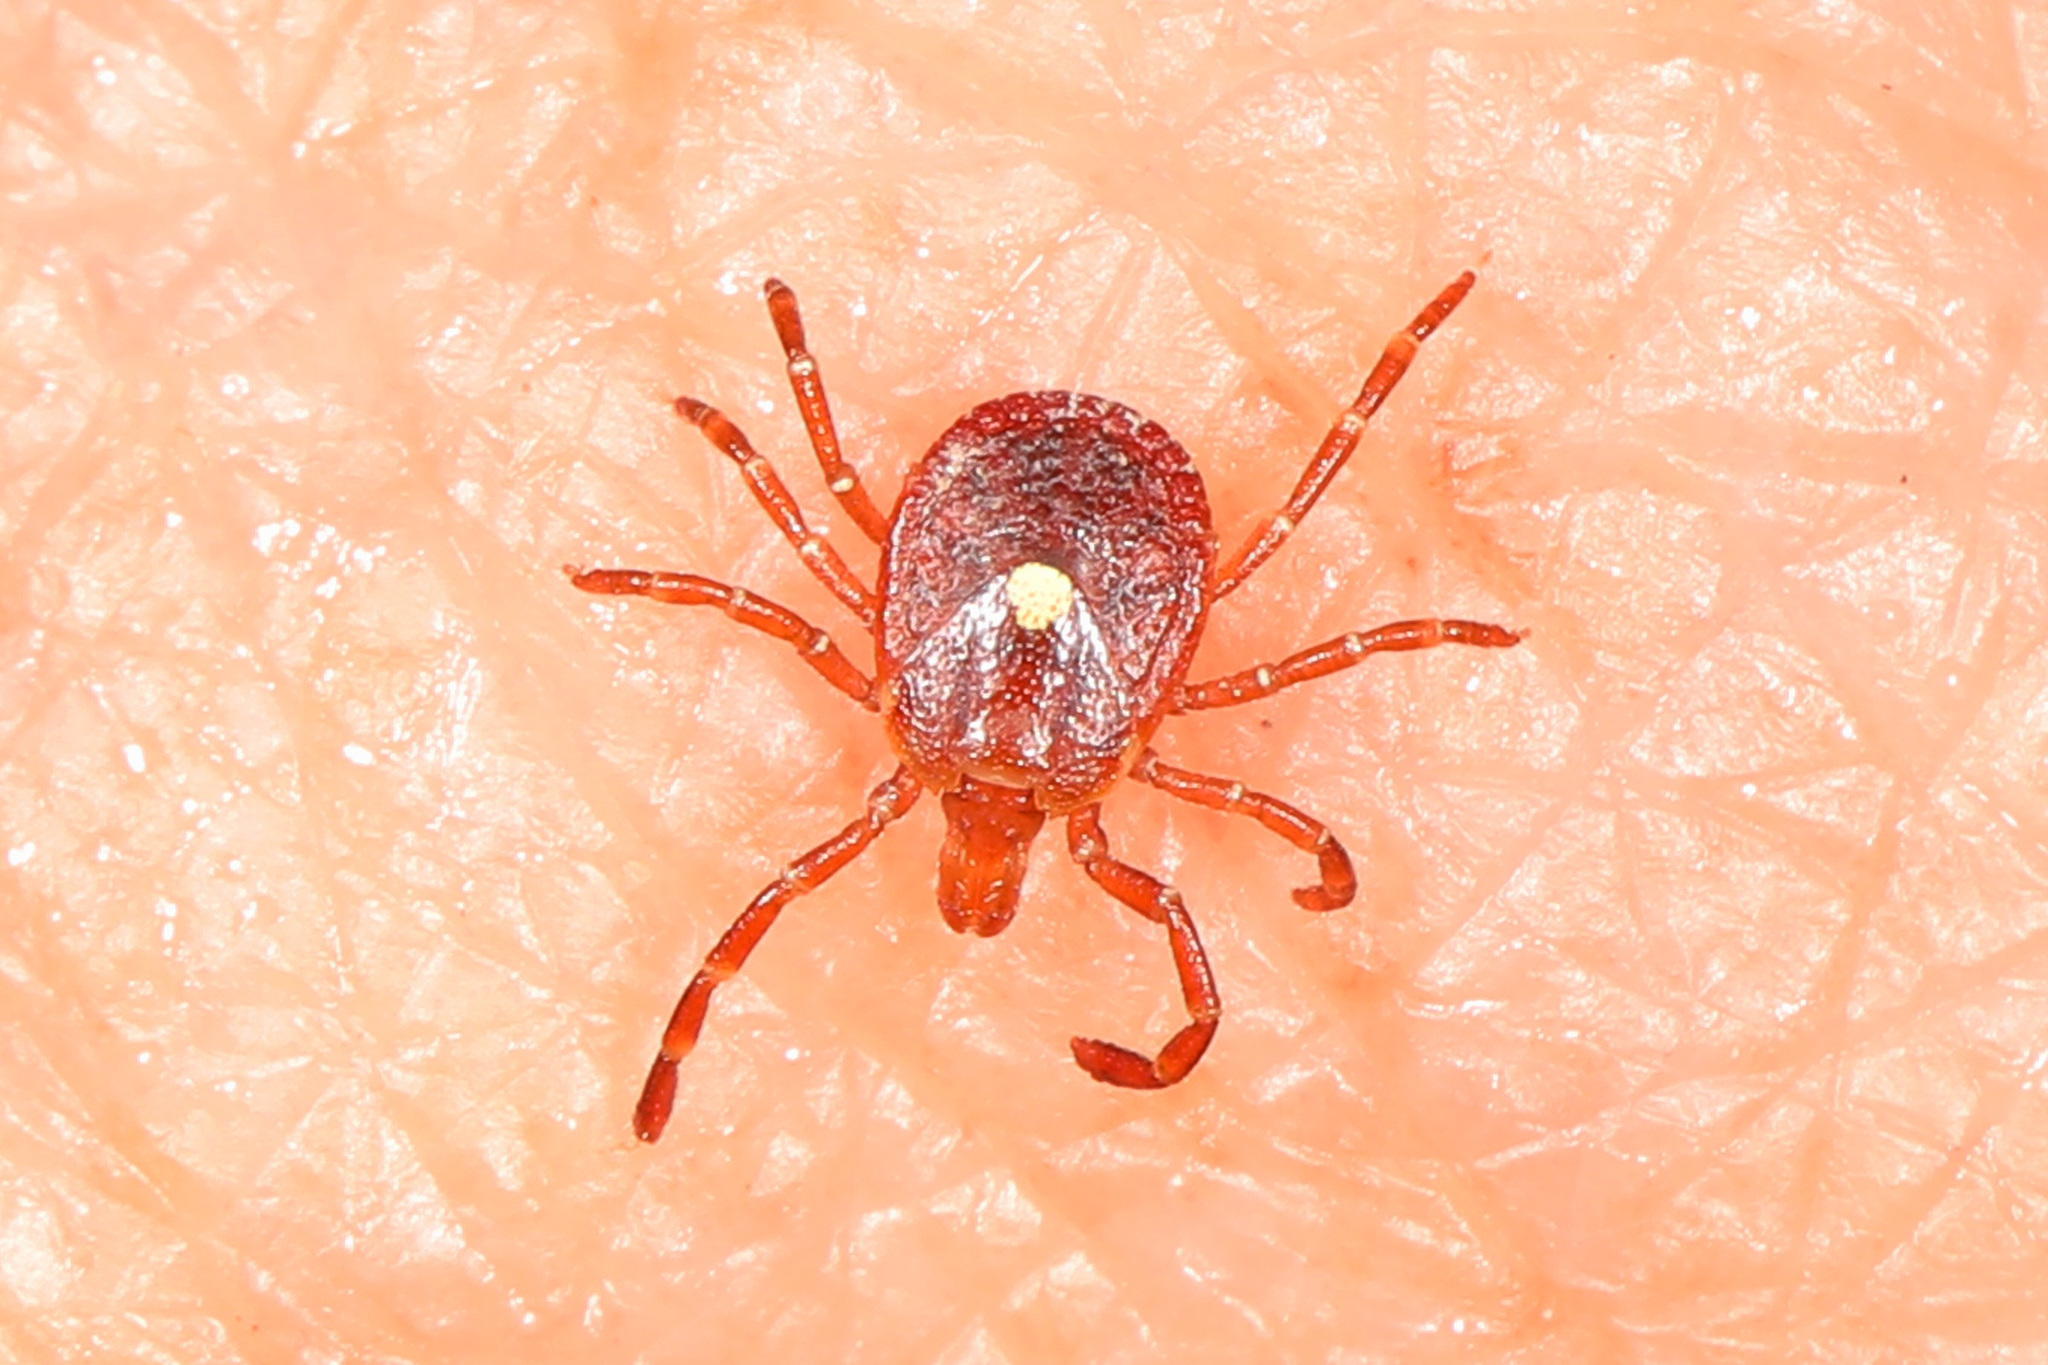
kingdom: Animalia
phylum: Arthropoda
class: Arachnida
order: Ixodida
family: Ixodidae
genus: Amblyomma
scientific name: Amblyomma americanum
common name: Lone star tick
